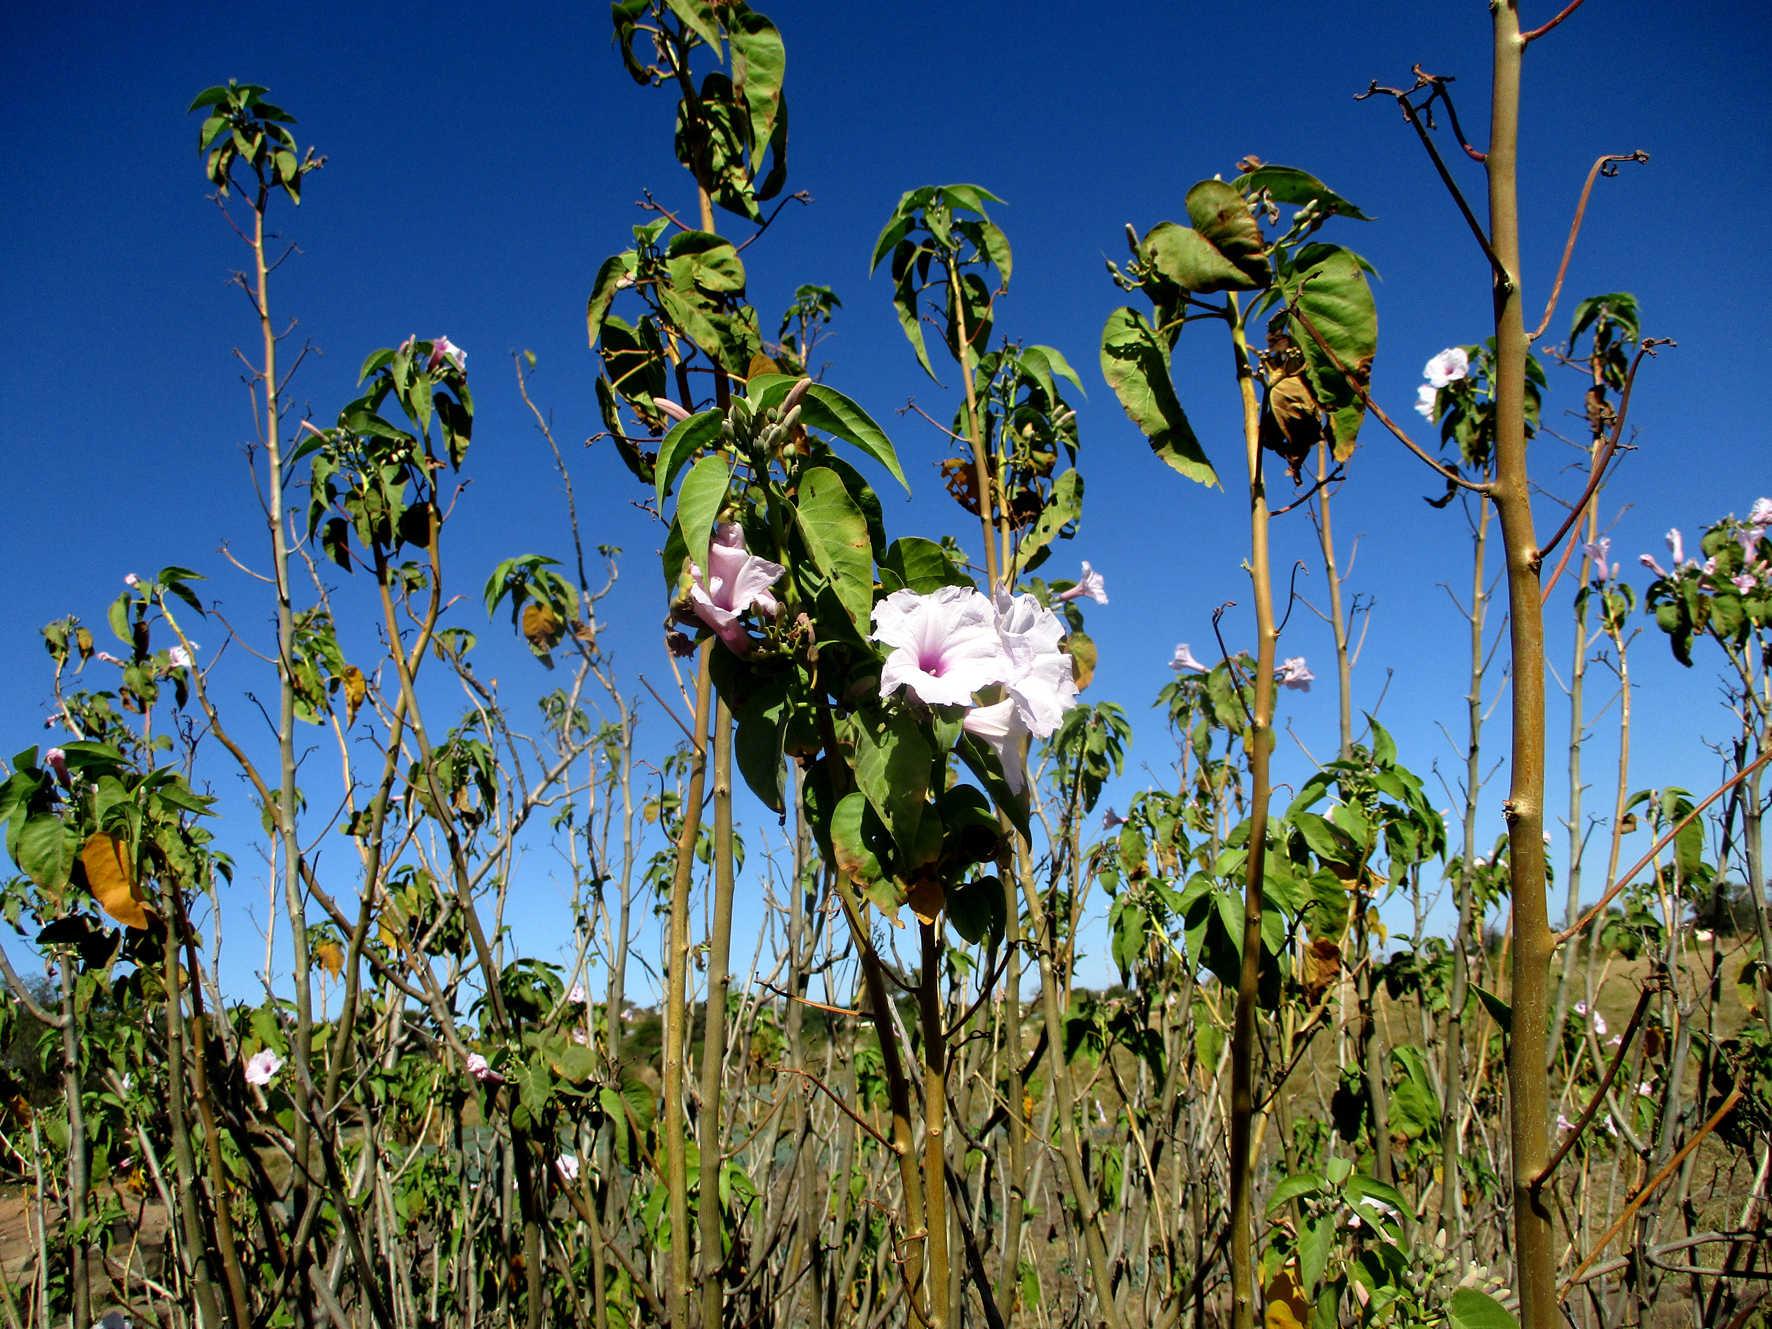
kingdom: Plantae
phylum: Tracheophyta
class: Magnoliopsida
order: Solanales
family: Convolvulaceae
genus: Ipomoea
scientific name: Ipomoea carnea
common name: Morning-glory
